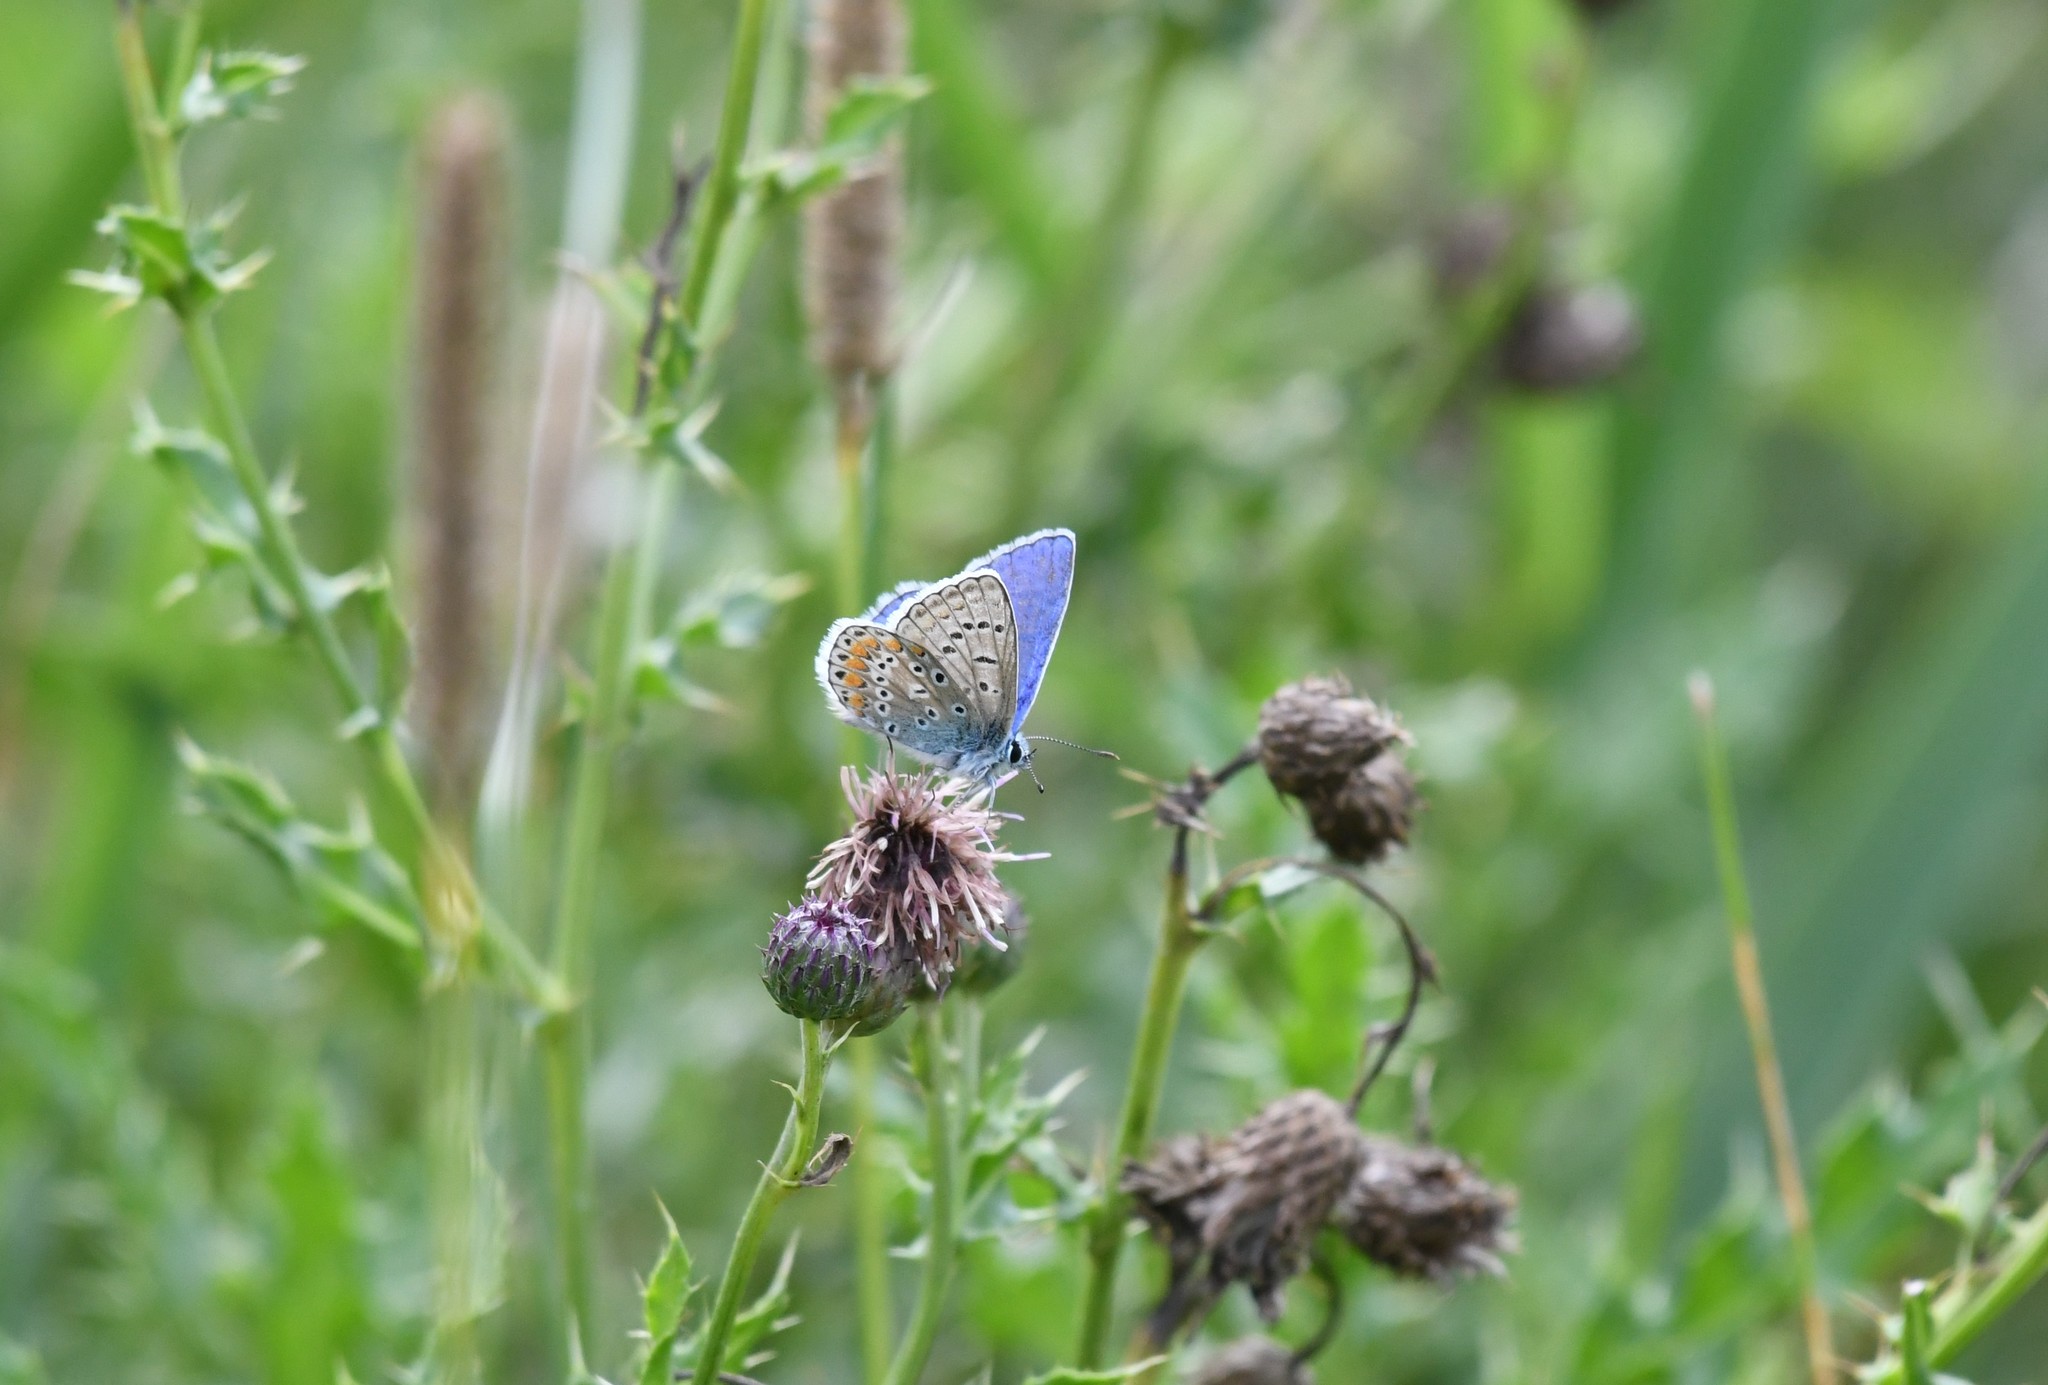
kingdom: Animalia
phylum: Arthropoda
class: Insecta
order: Lepidoptera
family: Lycaenidae
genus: Polyommatus
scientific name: Polyommatus icarus
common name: Common blue
